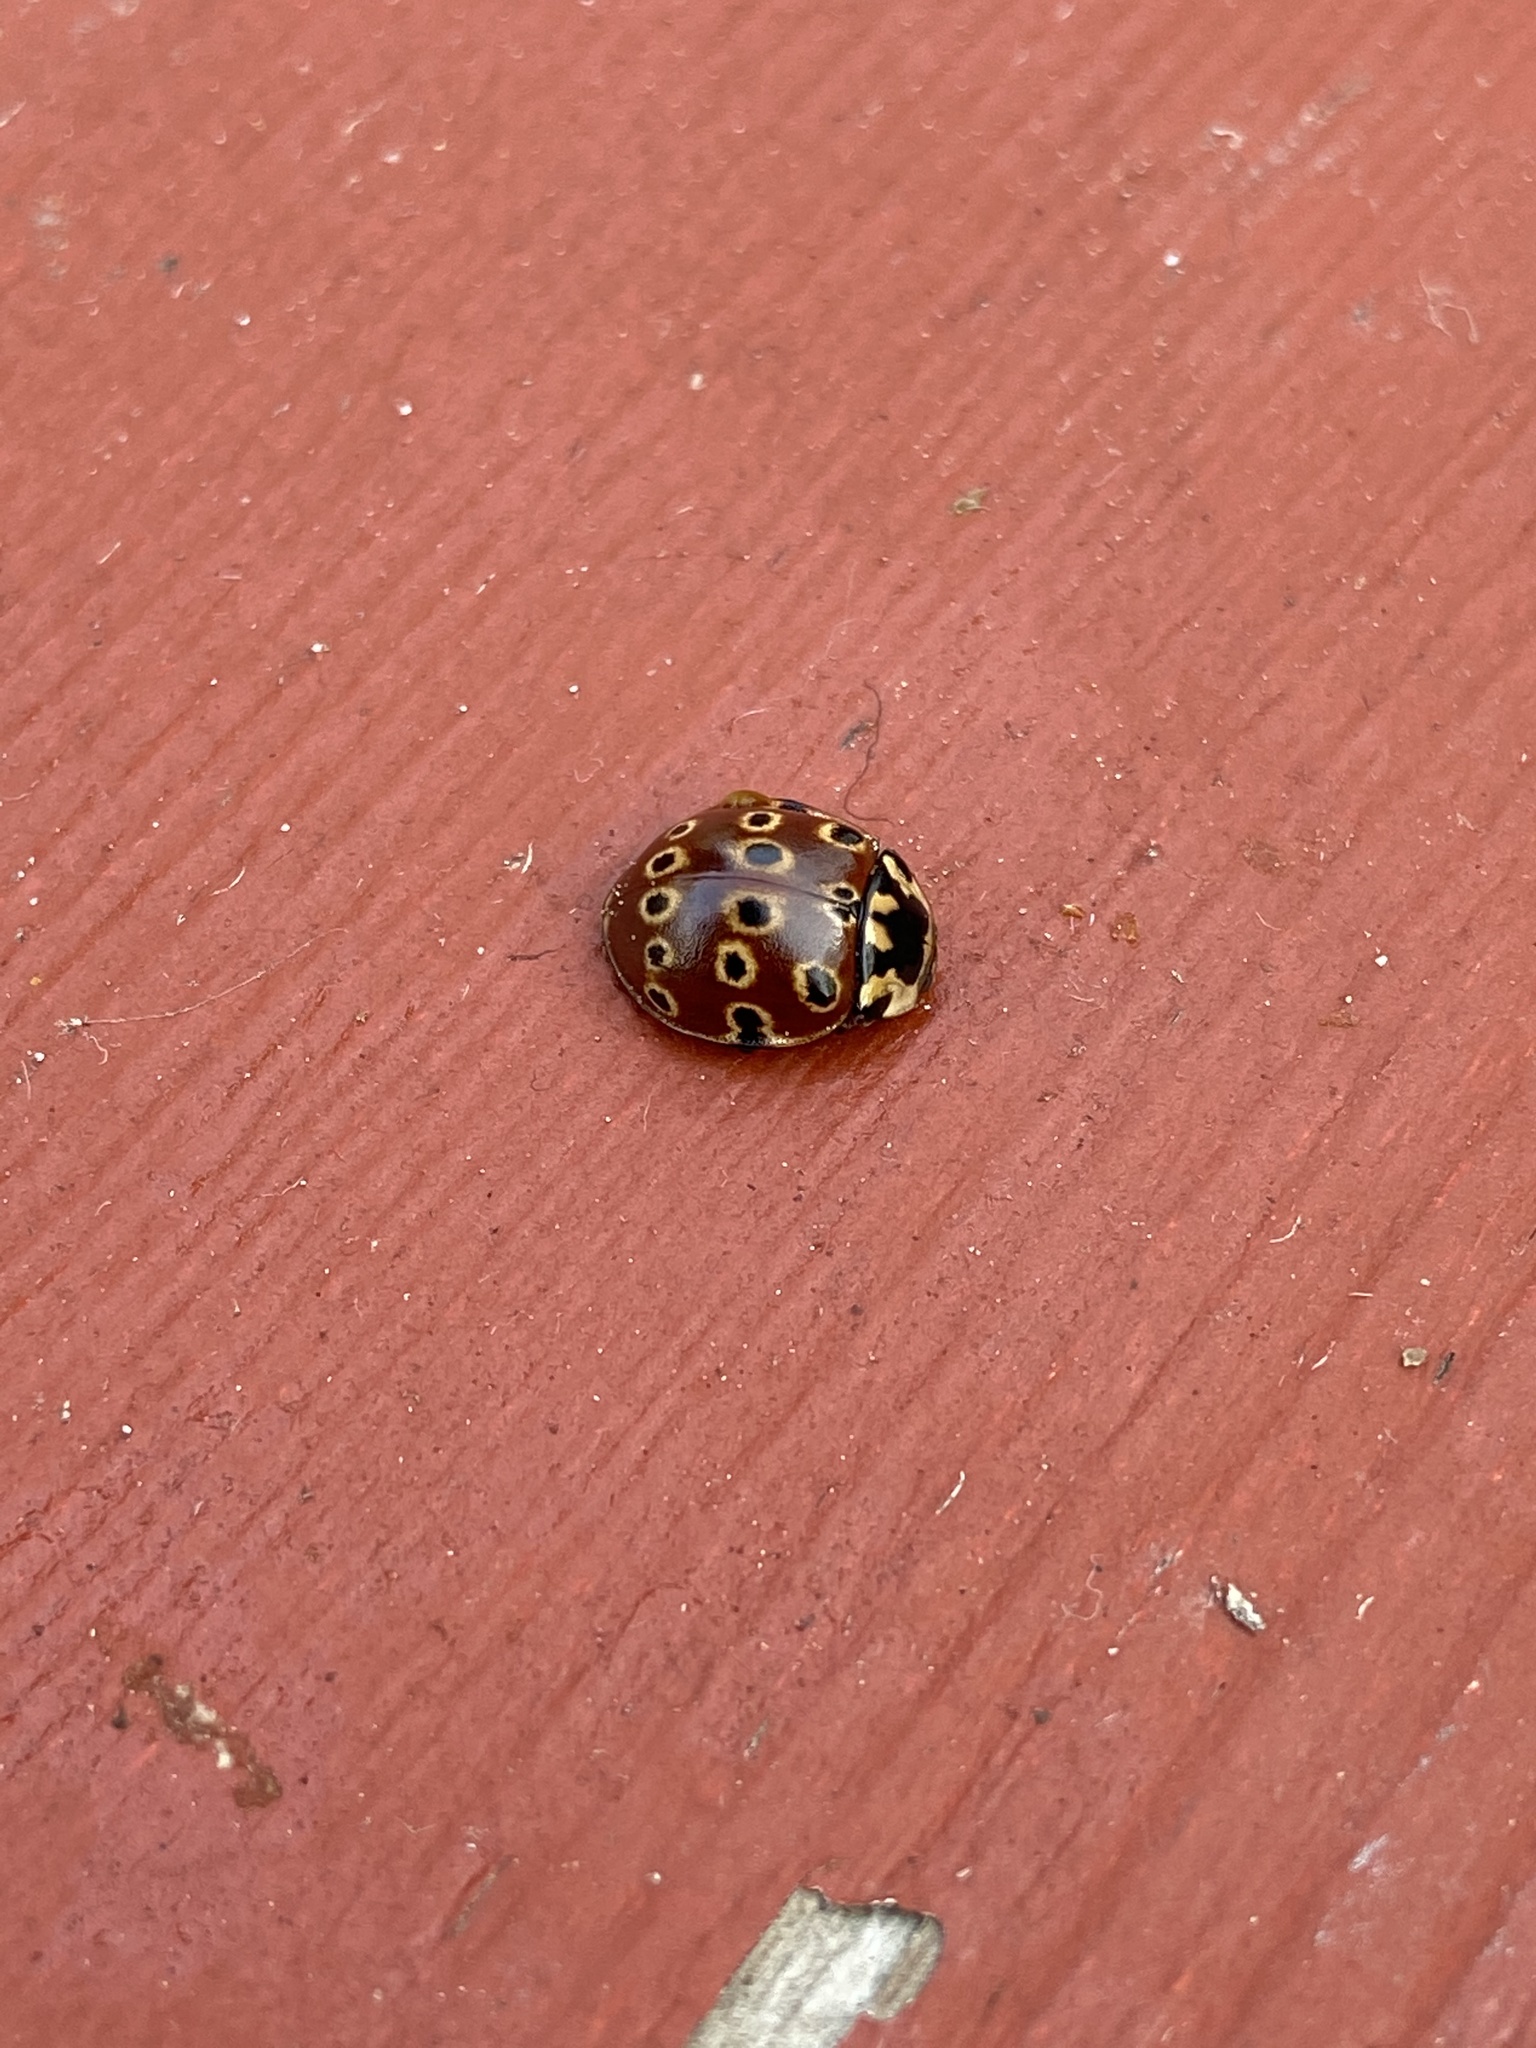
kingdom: Animalia
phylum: Arthropoda
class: Insecta
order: Coleoptera
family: Coccinellidae
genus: Anatis
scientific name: Anatis mali
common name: Eye-spotted lady beetle
